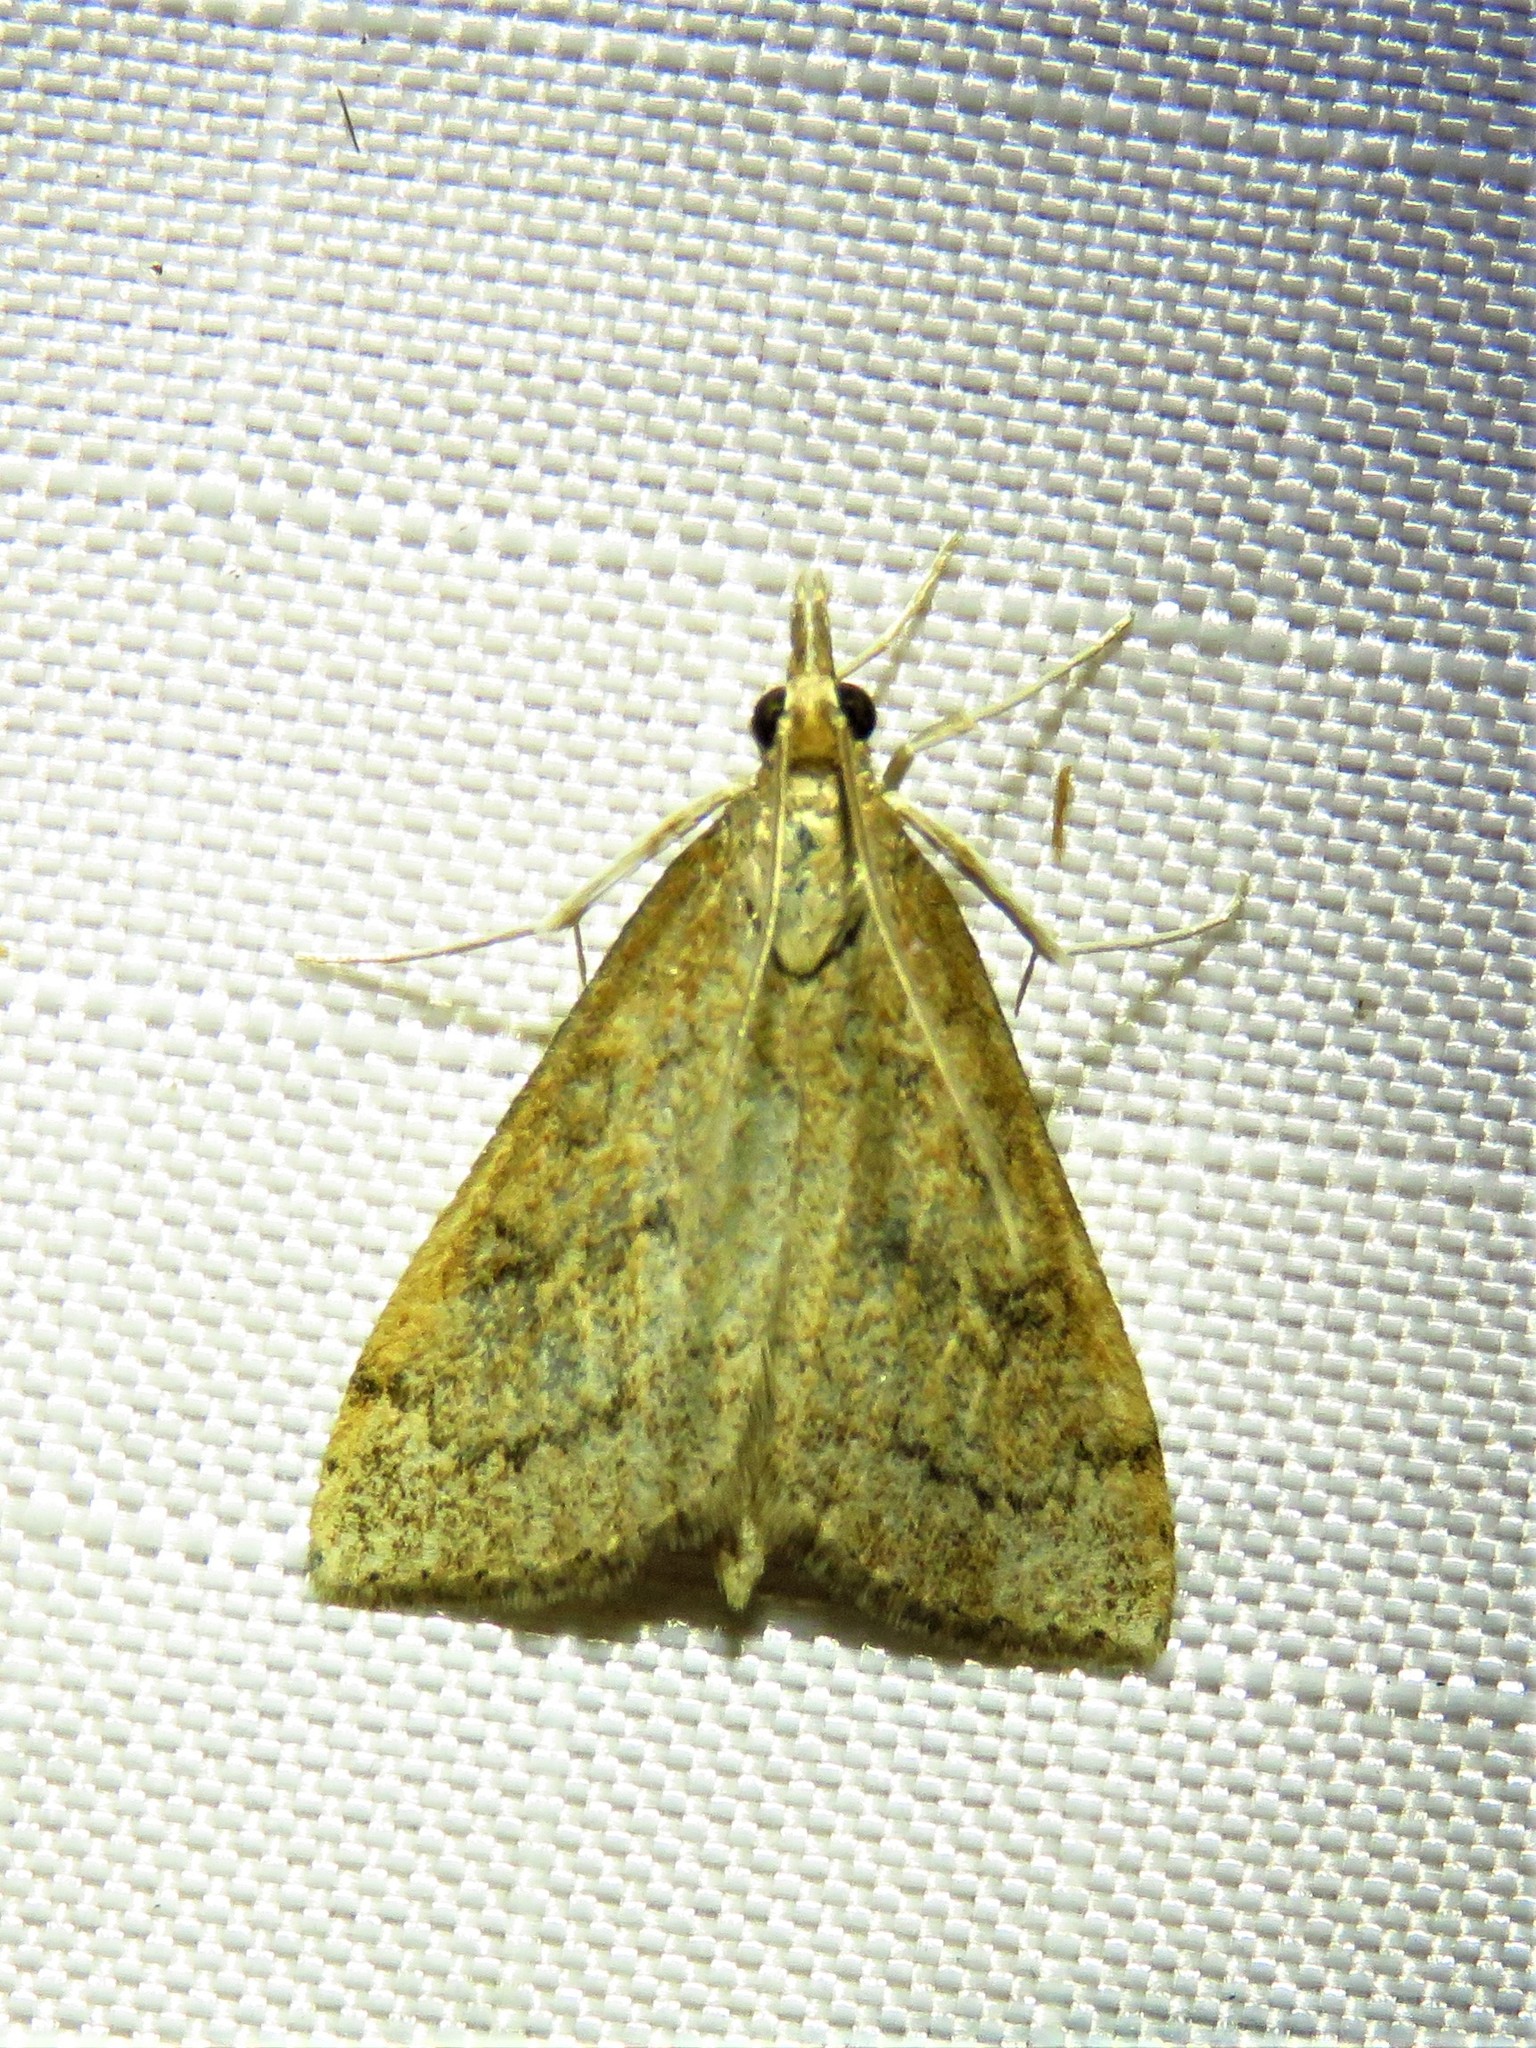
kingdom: Animalia
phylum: Arthropoda
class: Insecta
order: Lepidoptera
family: Crambidae
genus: Udea
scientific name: Udea rubigalis
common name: Celery leaftier moth
